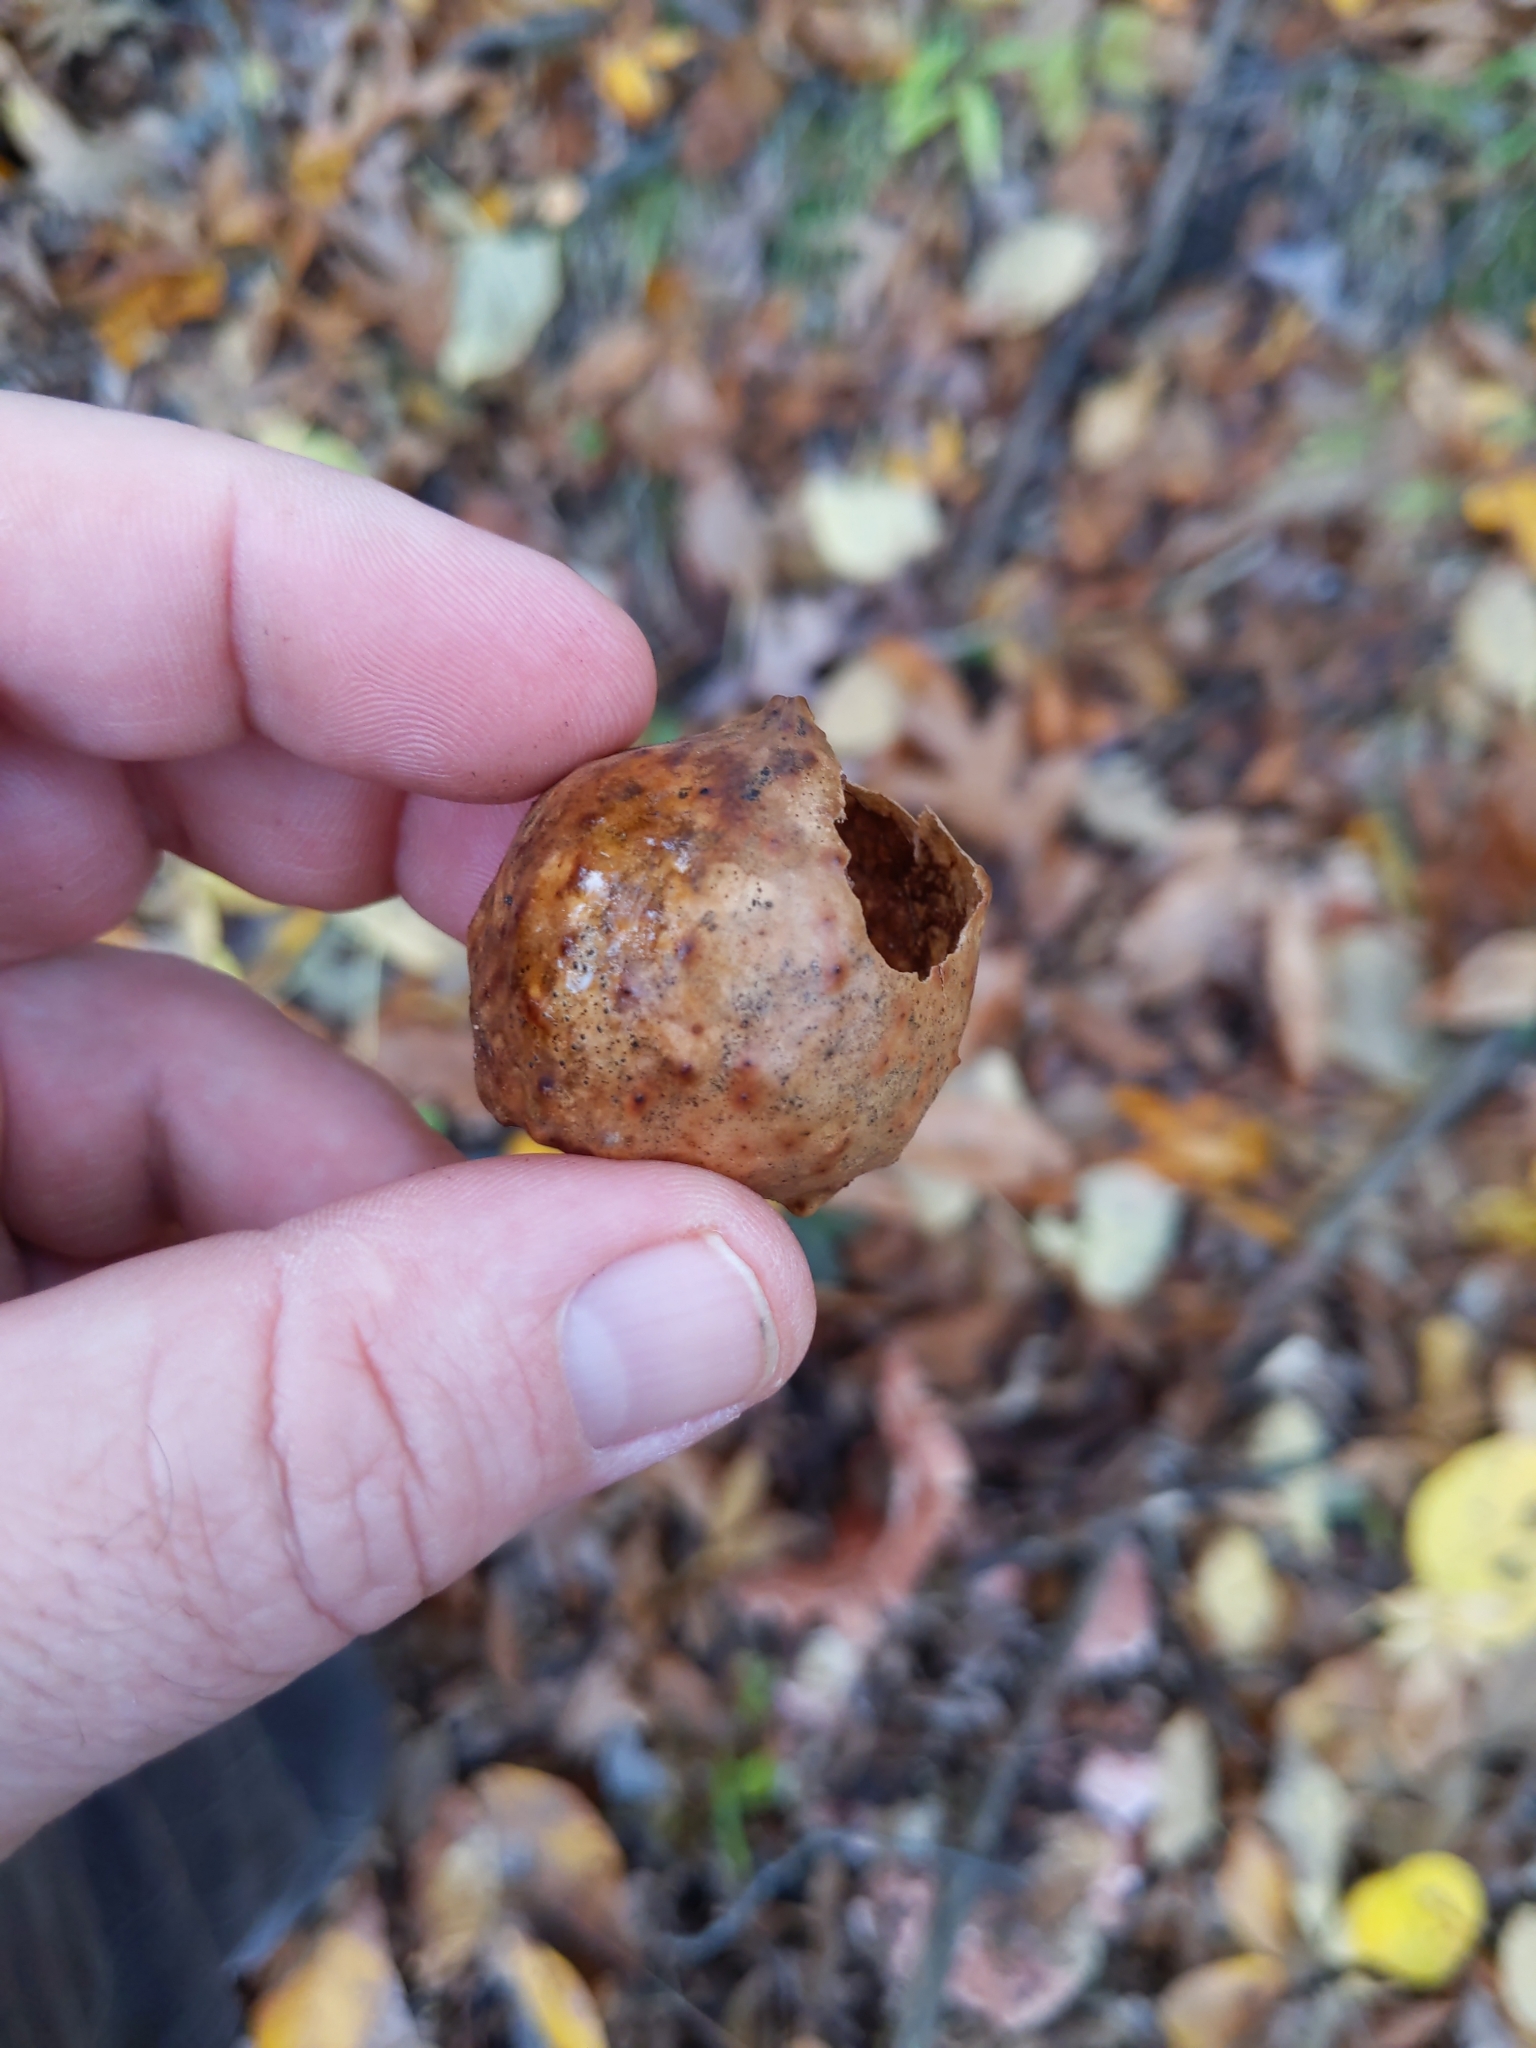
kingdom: Animalia
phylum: Arthropoda
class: Insecta
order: Hymenoptera
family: Cynipidae
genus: Amphibolips
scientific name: Amphibolips
